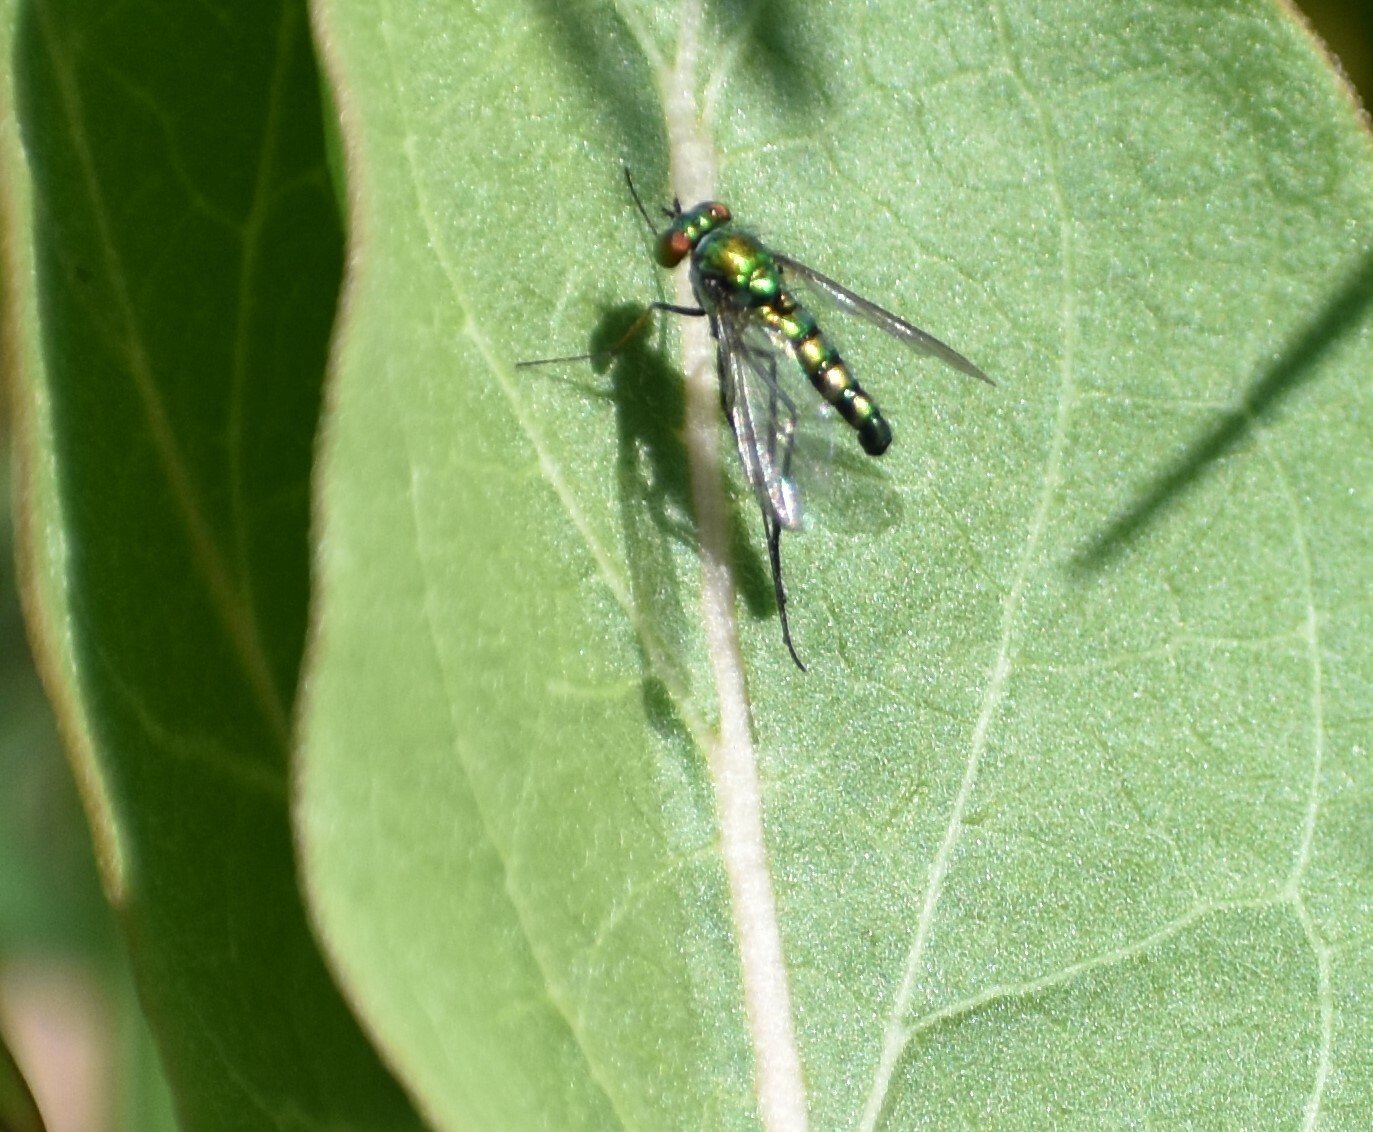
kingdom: Animalia
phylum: Arthropoda
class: Insecta
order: Diptera
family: Dolichopodidae
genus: Condylostylus
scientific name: Condylostylus longicornis
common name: Long-legged fly
